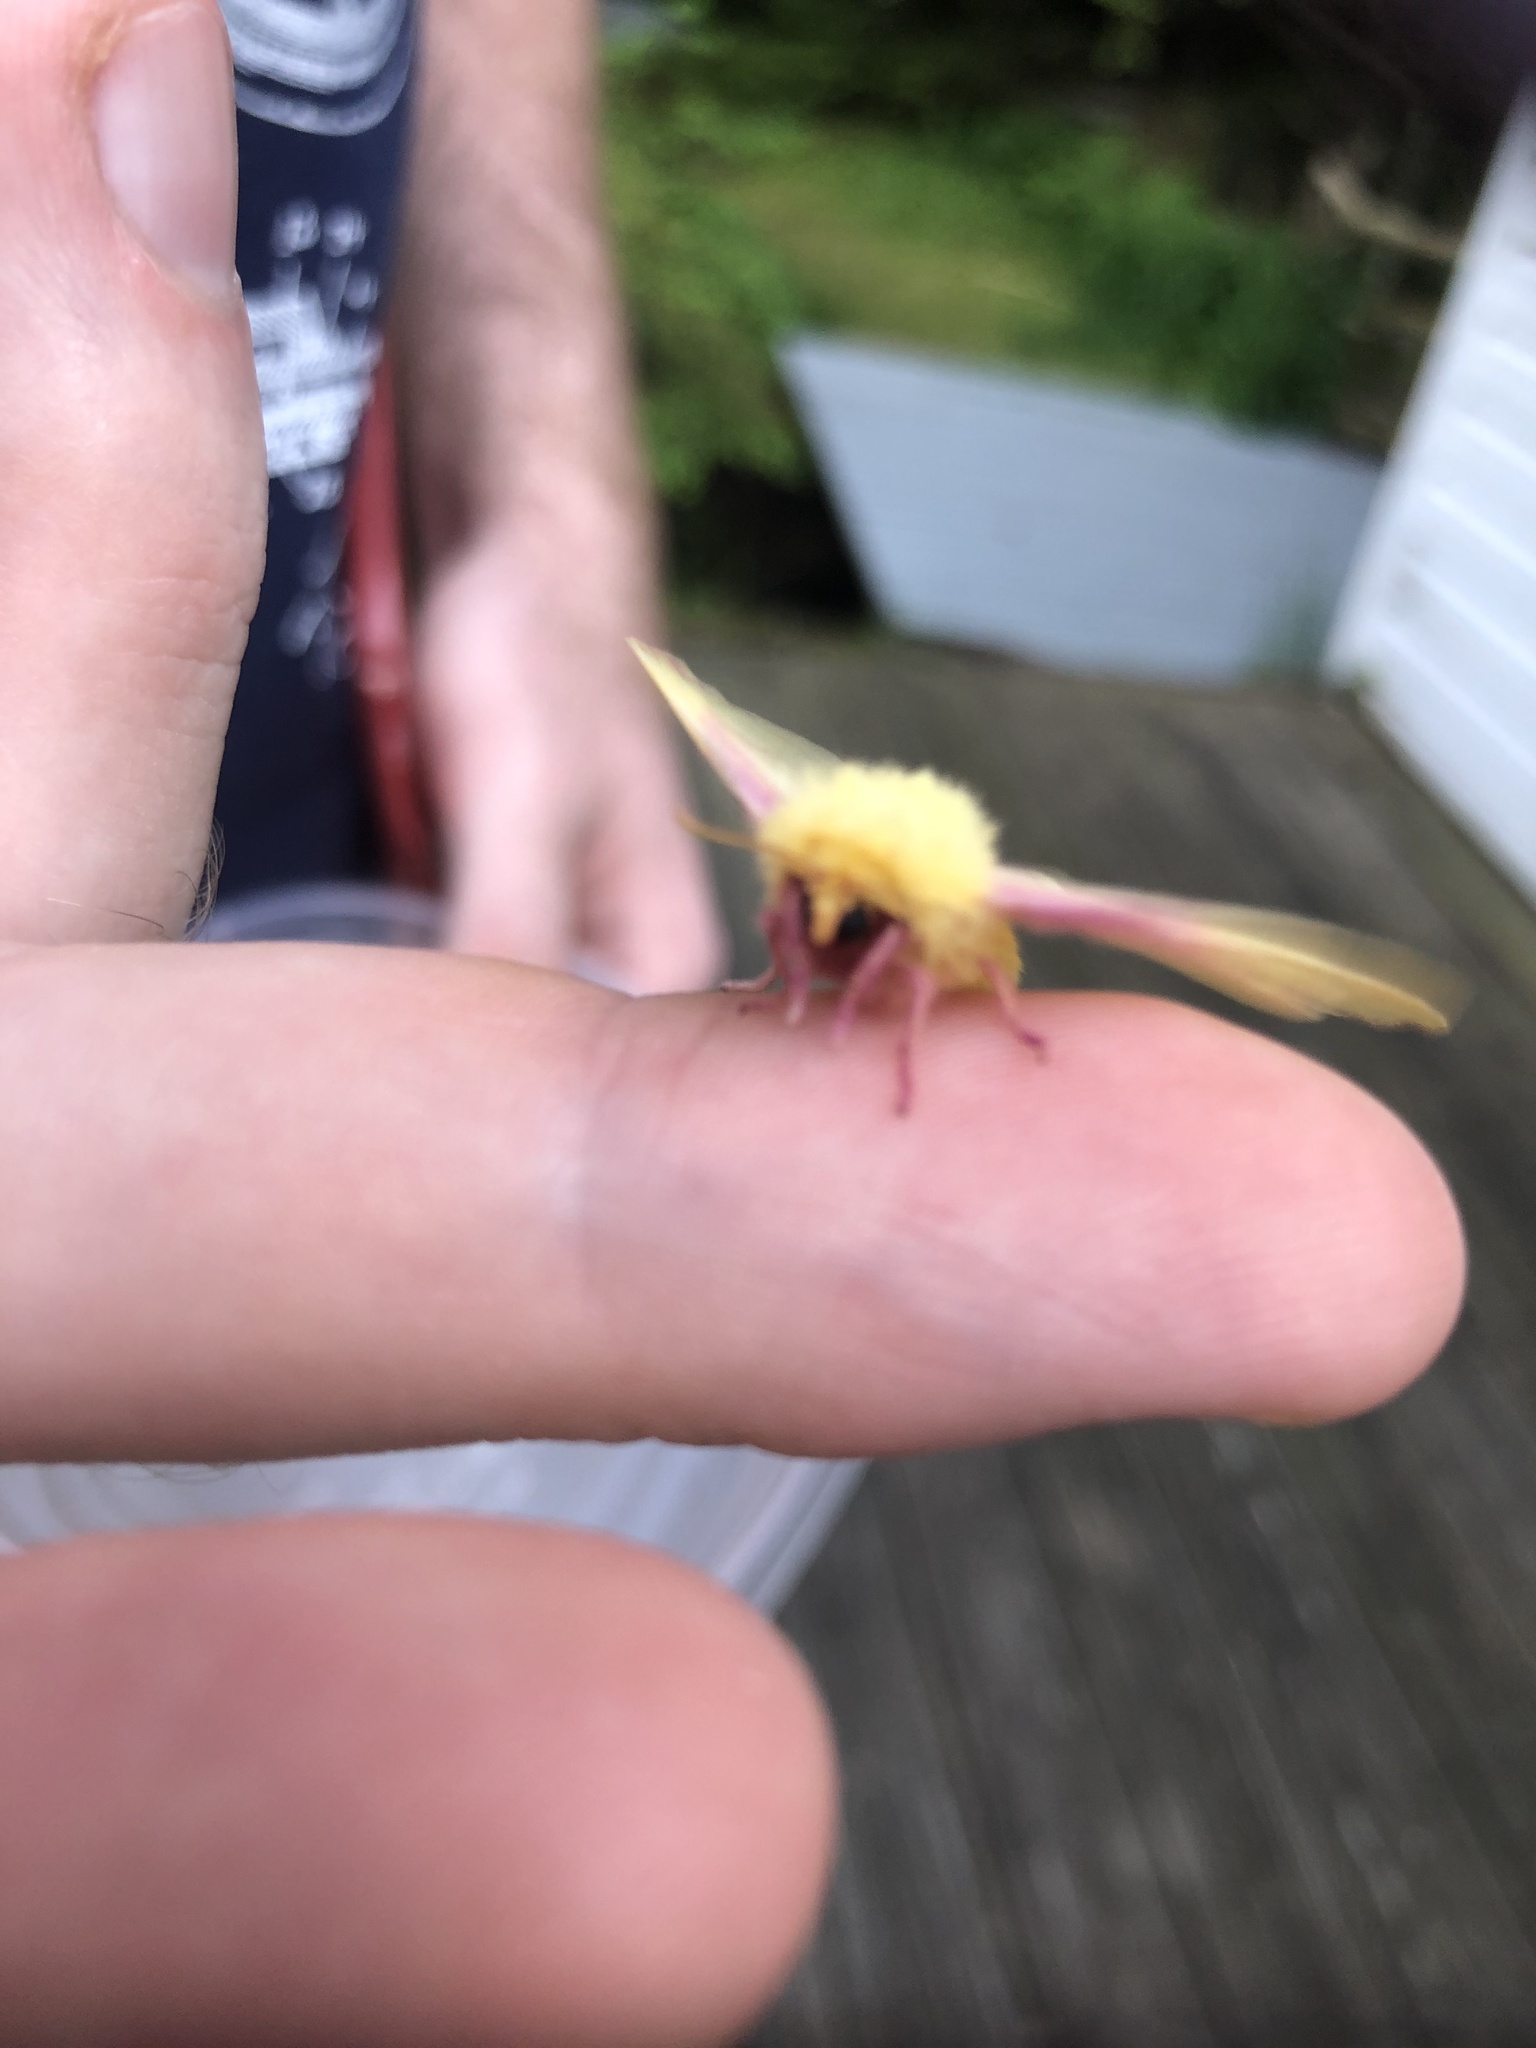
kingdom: Animalia
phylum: Arthropoda
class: Insecta
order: Lepidoptera
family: Saturniidae
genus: Dryocampa
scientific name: Dryocampa rubicunda
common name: Rosy maple moth
